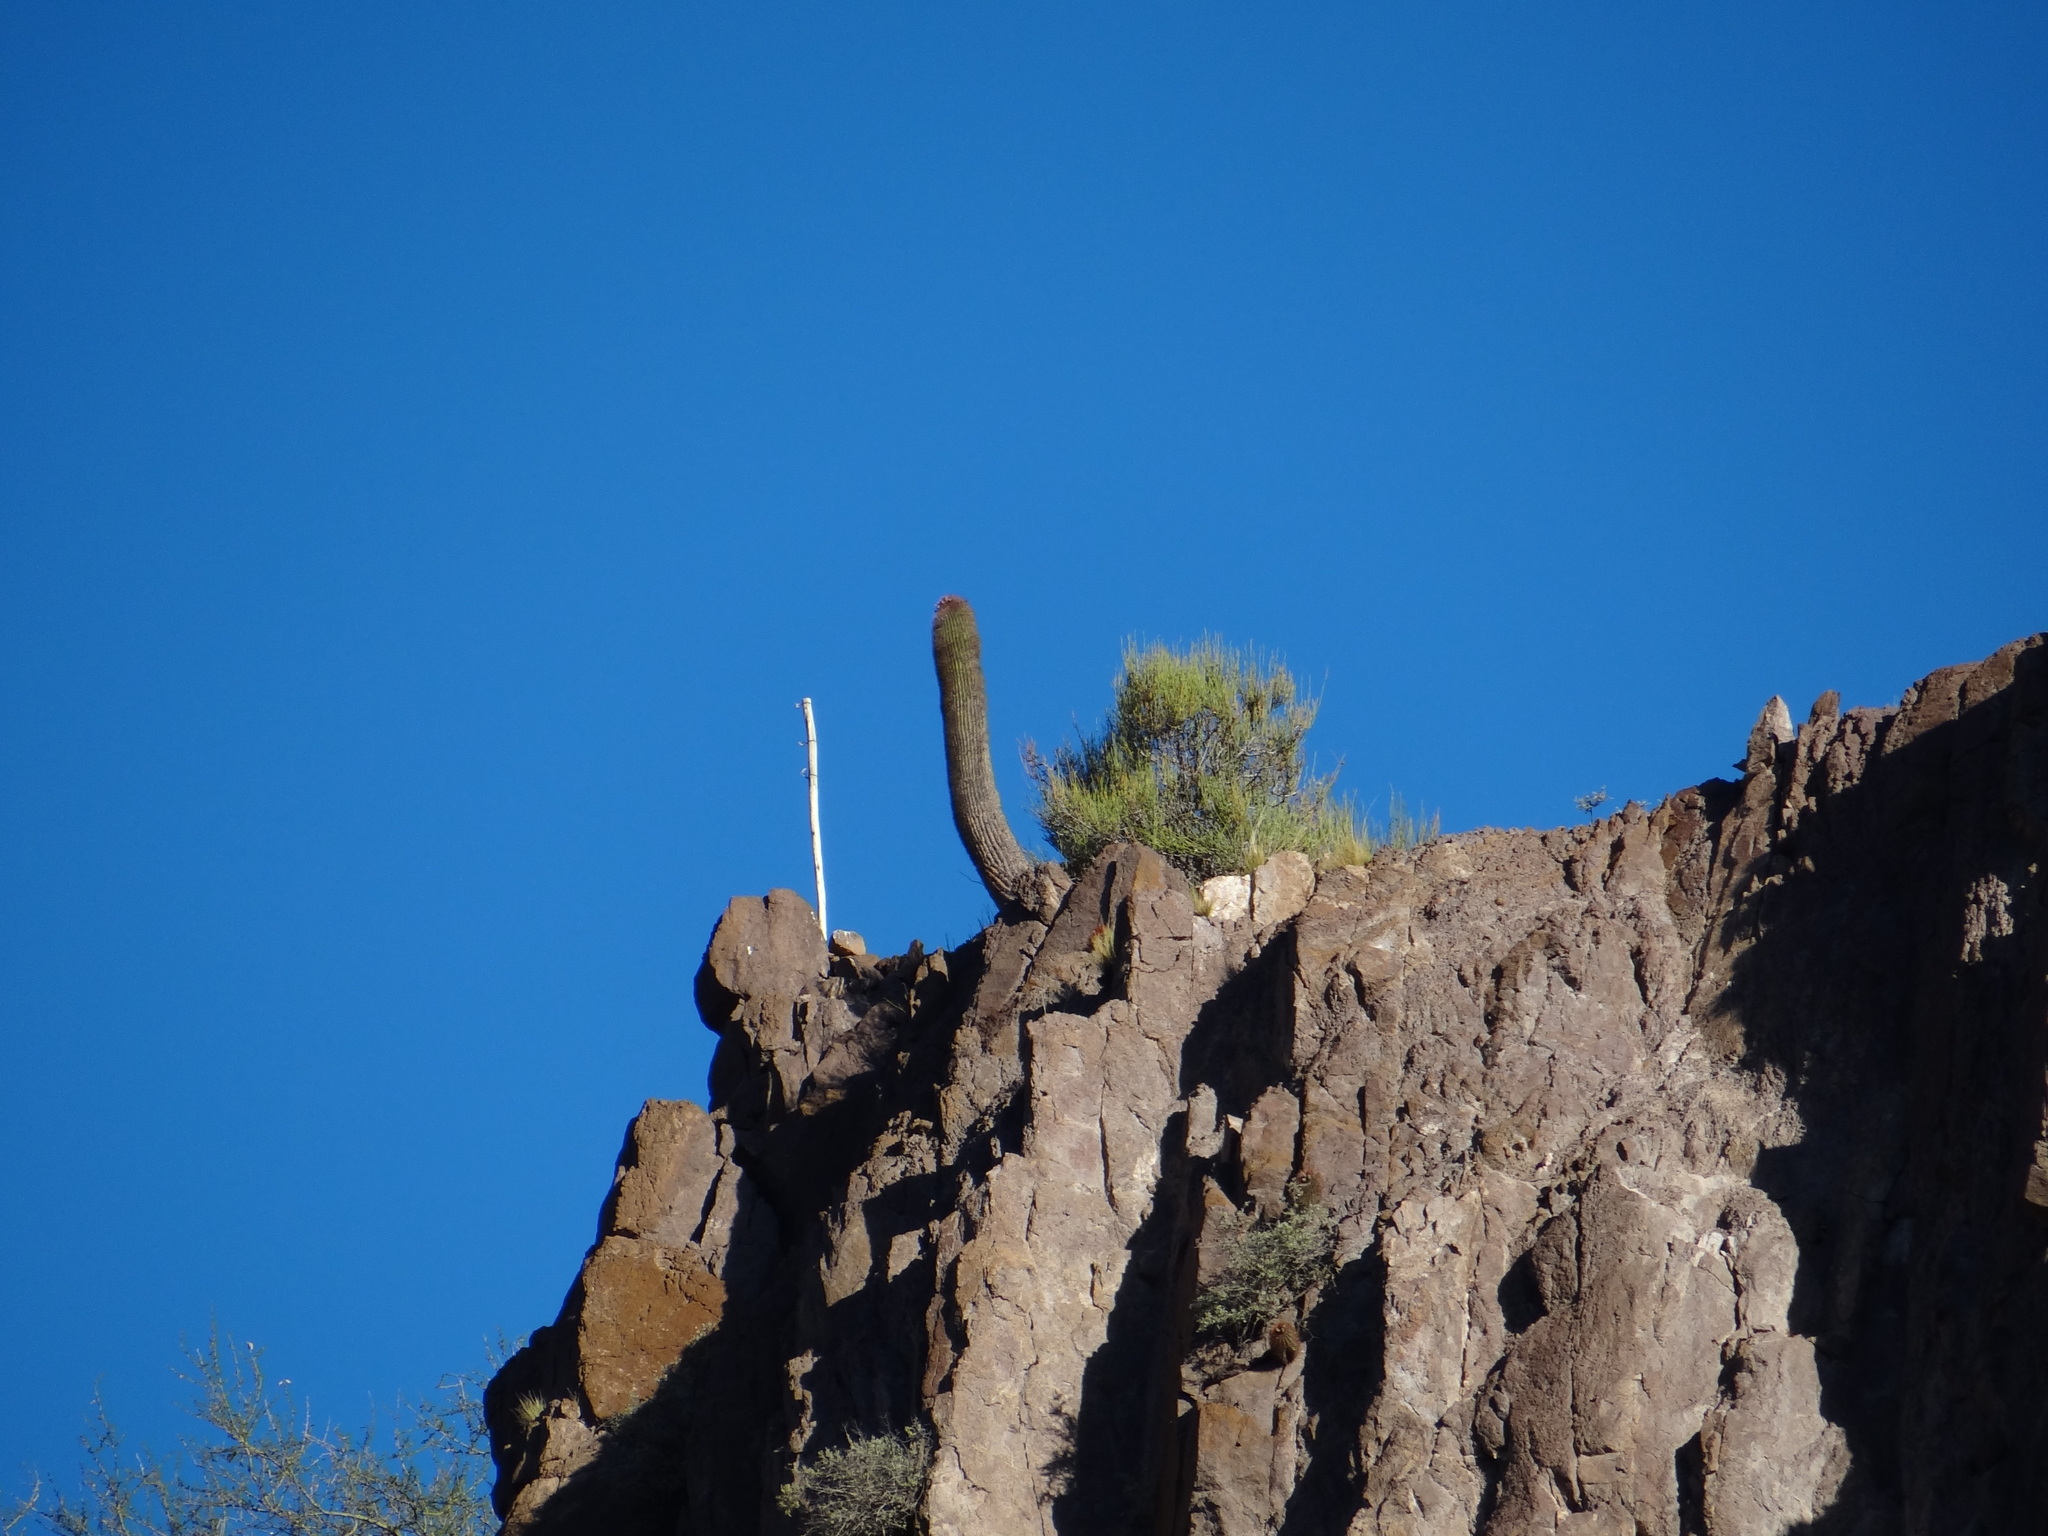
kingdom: Plantae
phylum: Tracheophyta
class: Magnoliopsida
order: Caryophyllales
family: Cactaceae
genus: Denmoza
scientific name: Denmoza rhodacantha
